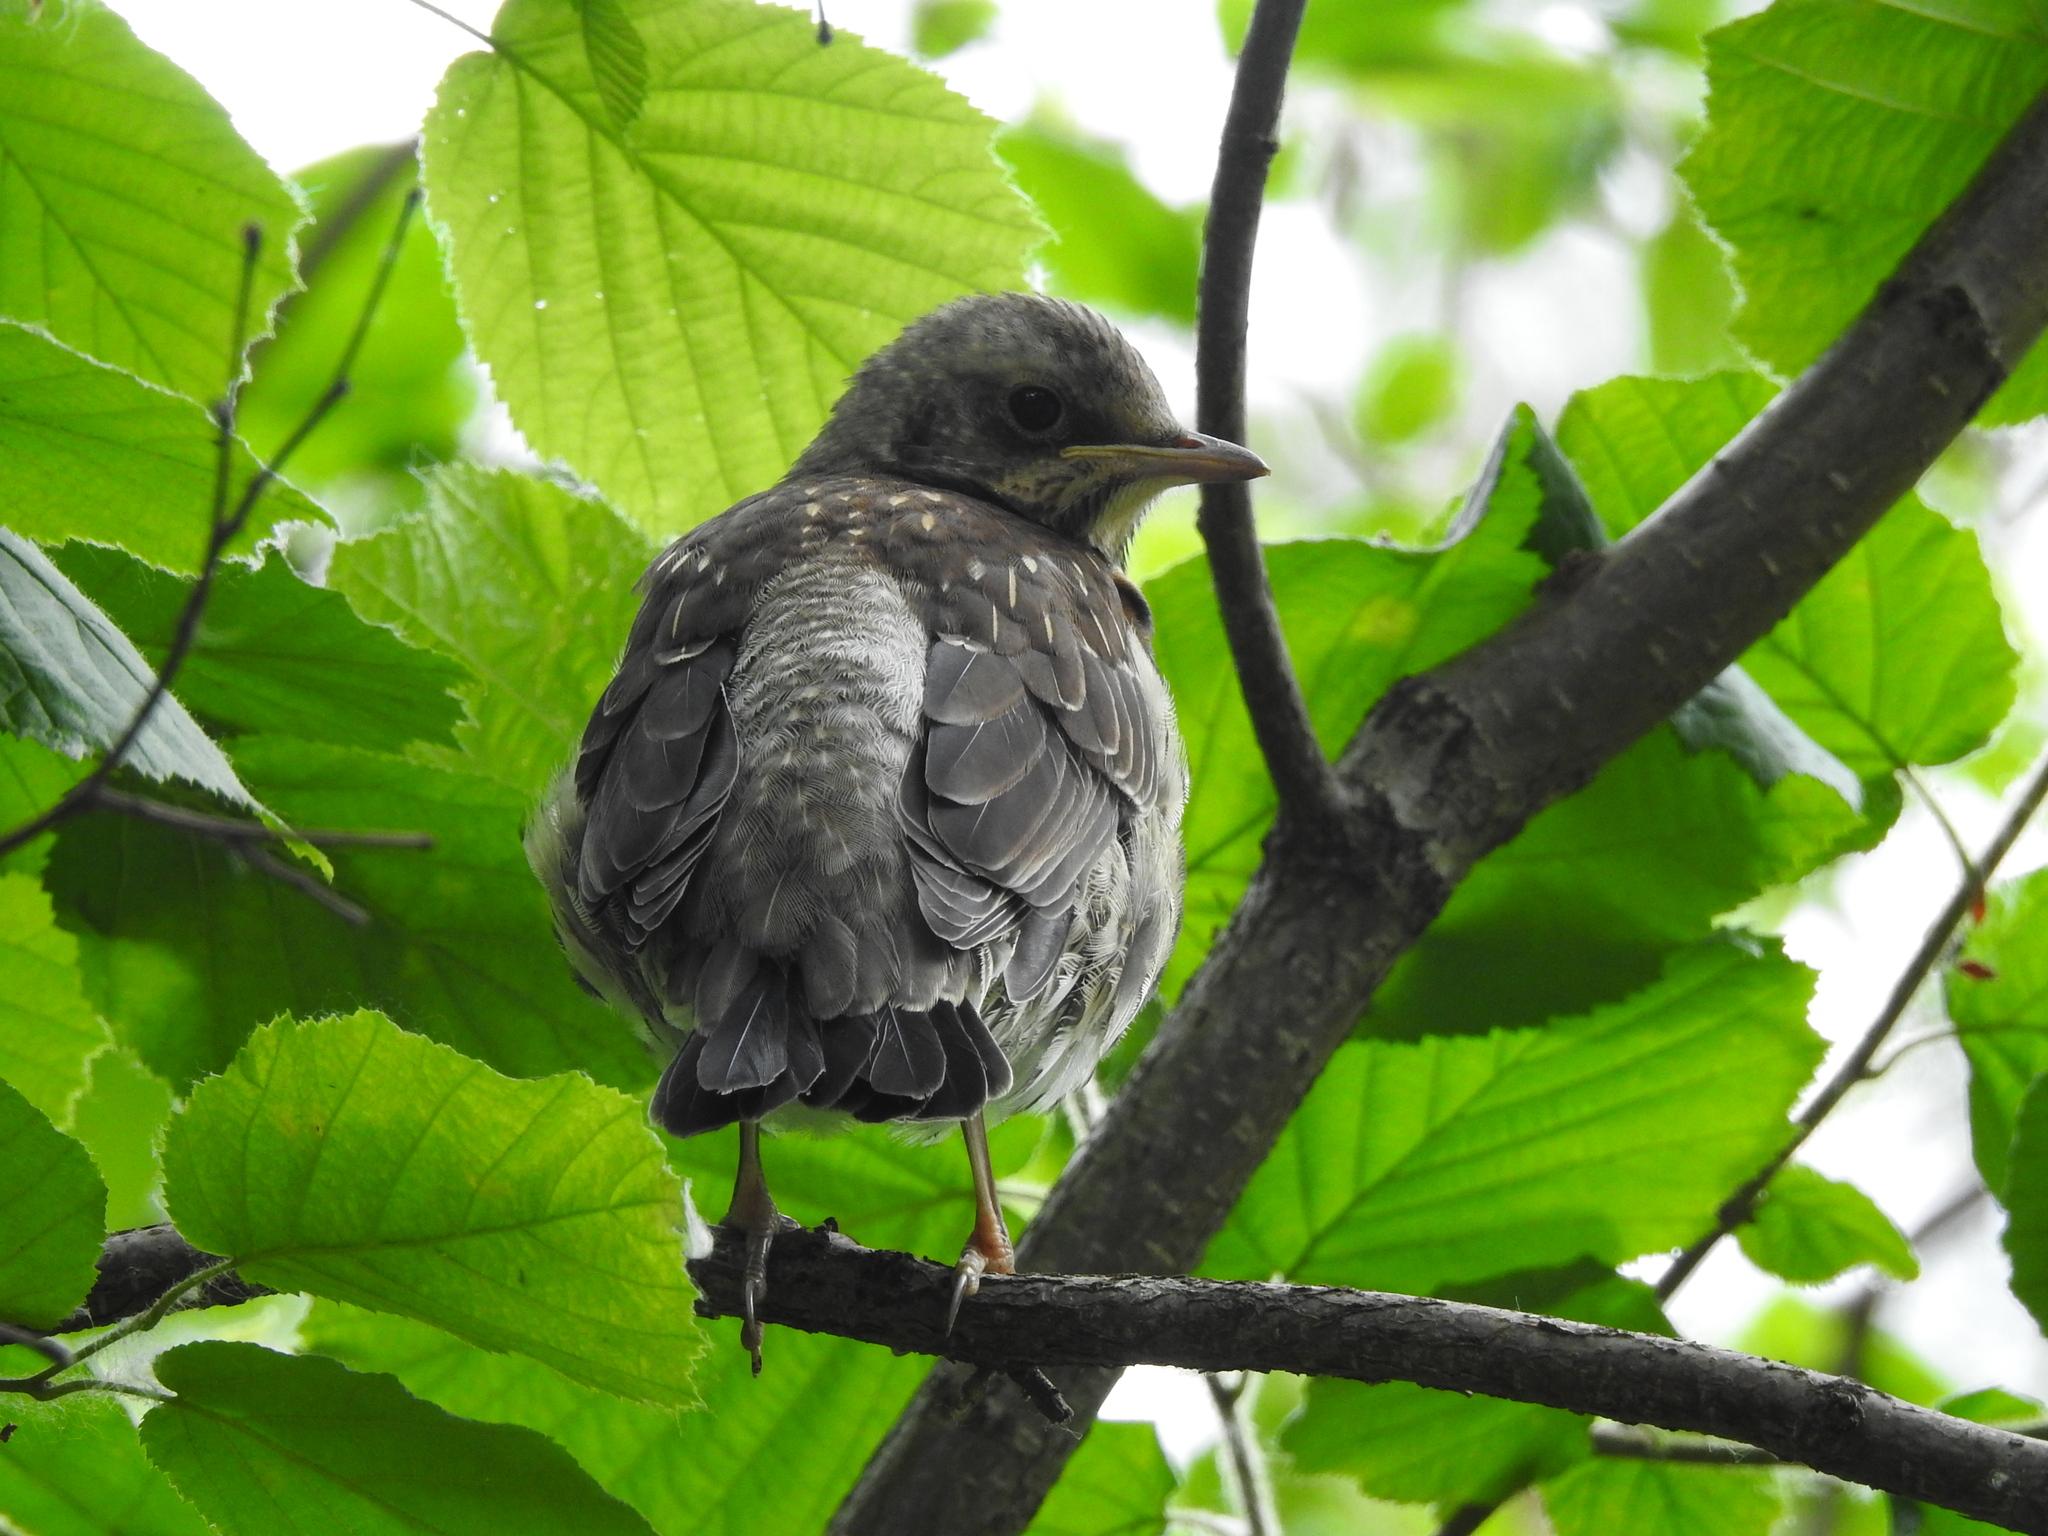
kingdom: Animalia
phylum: Chordata
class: Aves
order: Passeriformes
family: Turdidae
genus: Turdus
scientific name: Turdus pilaris
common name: Fieldfare
